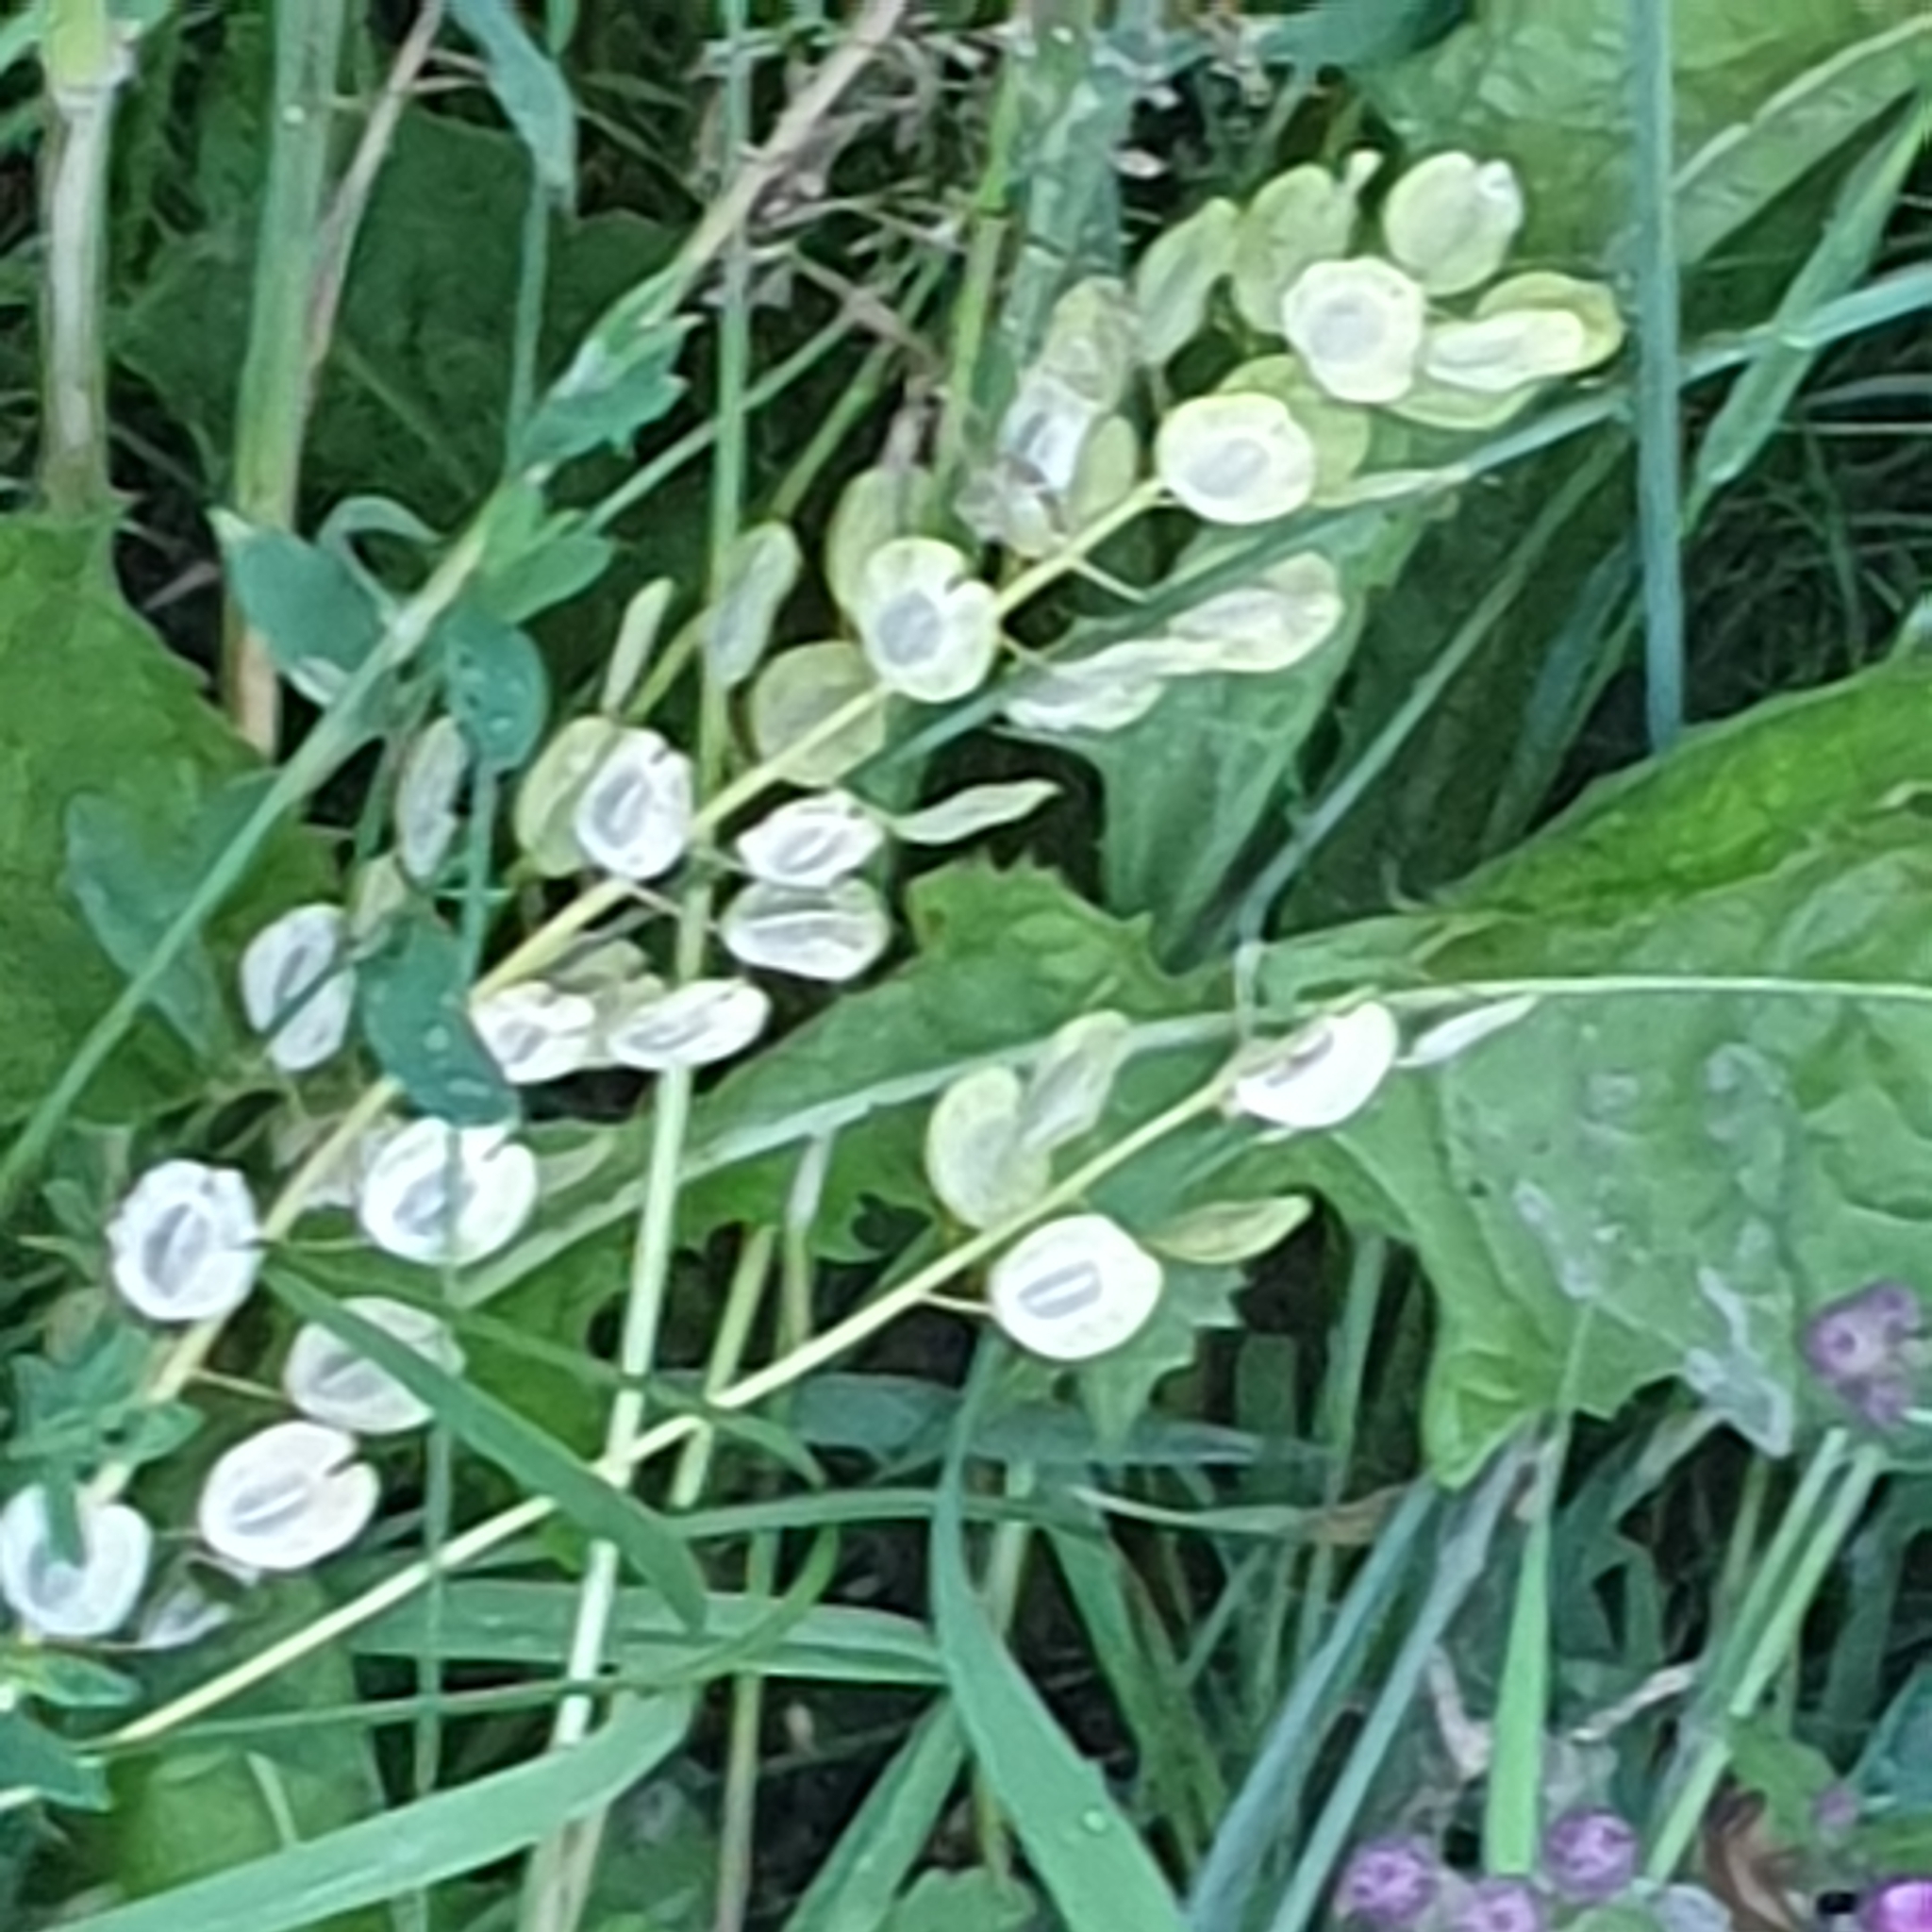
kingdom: Plantae
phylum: Tracheophyta
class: Magnoliopsida
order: Brassicales
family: Brassicaceae
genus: Thlaspi
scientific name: Thlaspi arvense
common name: Field pennycress
